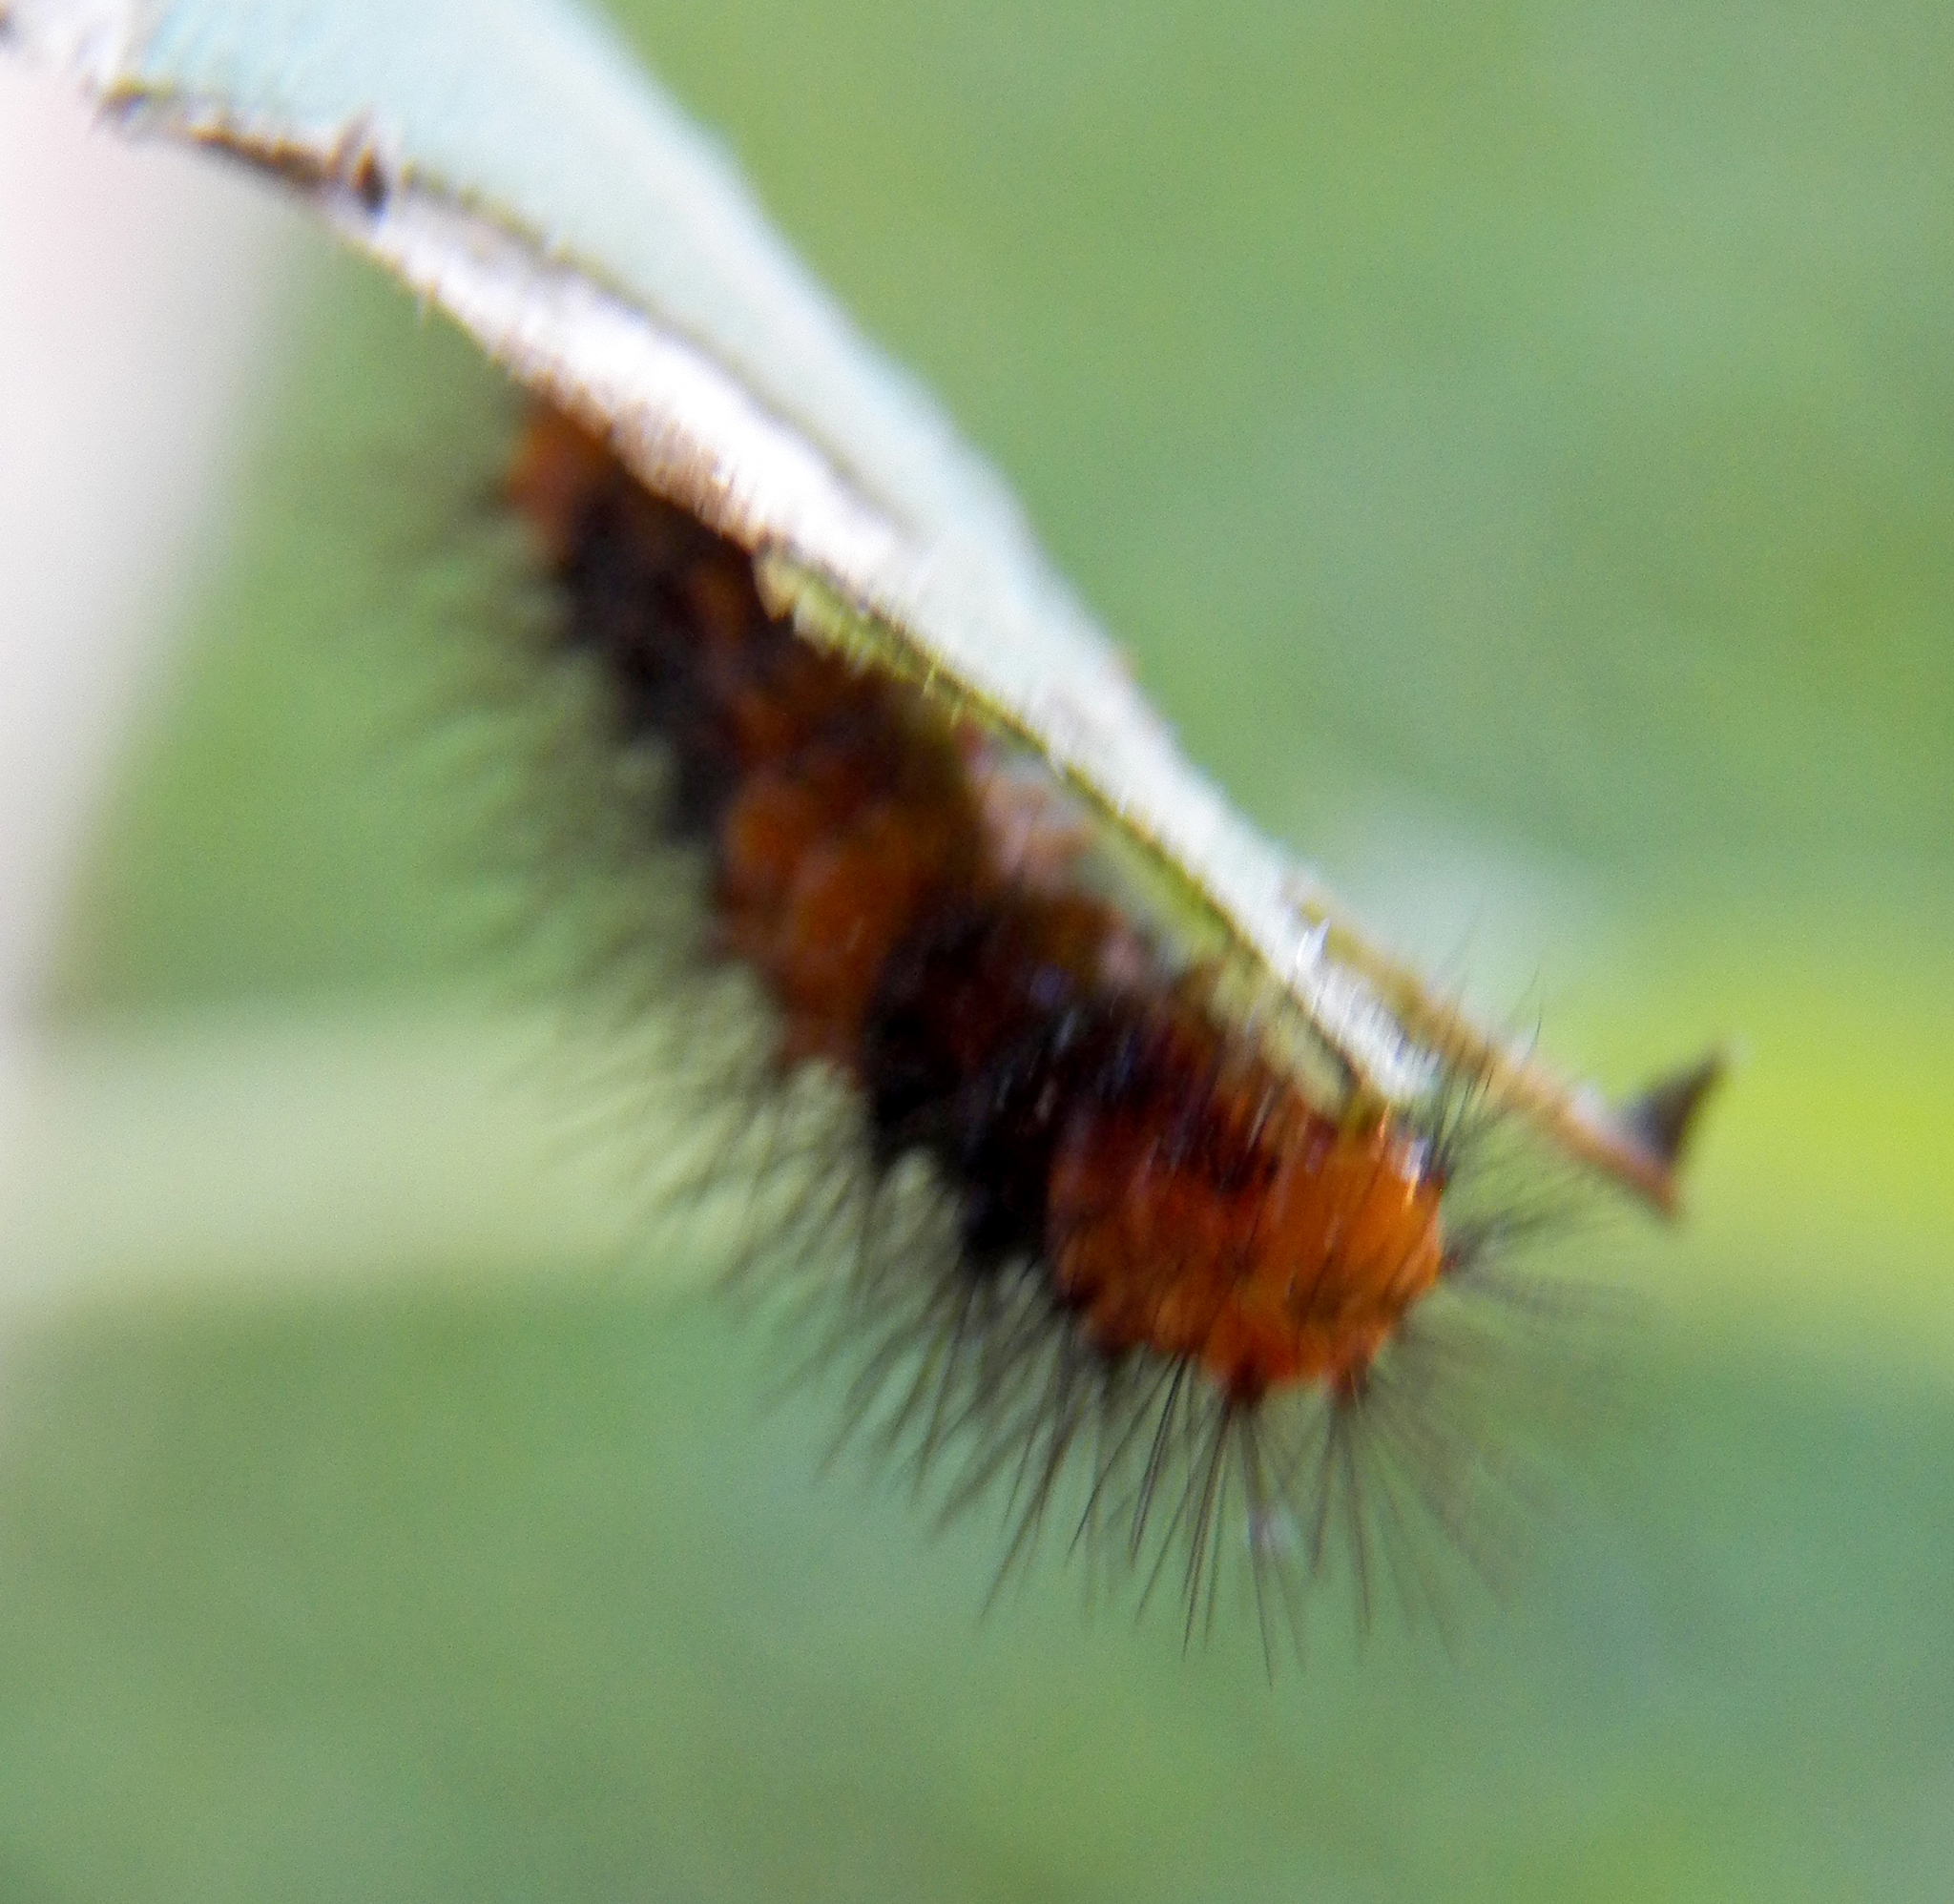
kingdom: Animalia
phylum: Arthropoda
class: Insecta
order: Lepidoptera
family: Erebidae
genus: Hypercompe
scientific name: Hypercompe scribonia
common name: Giant leopard moth
